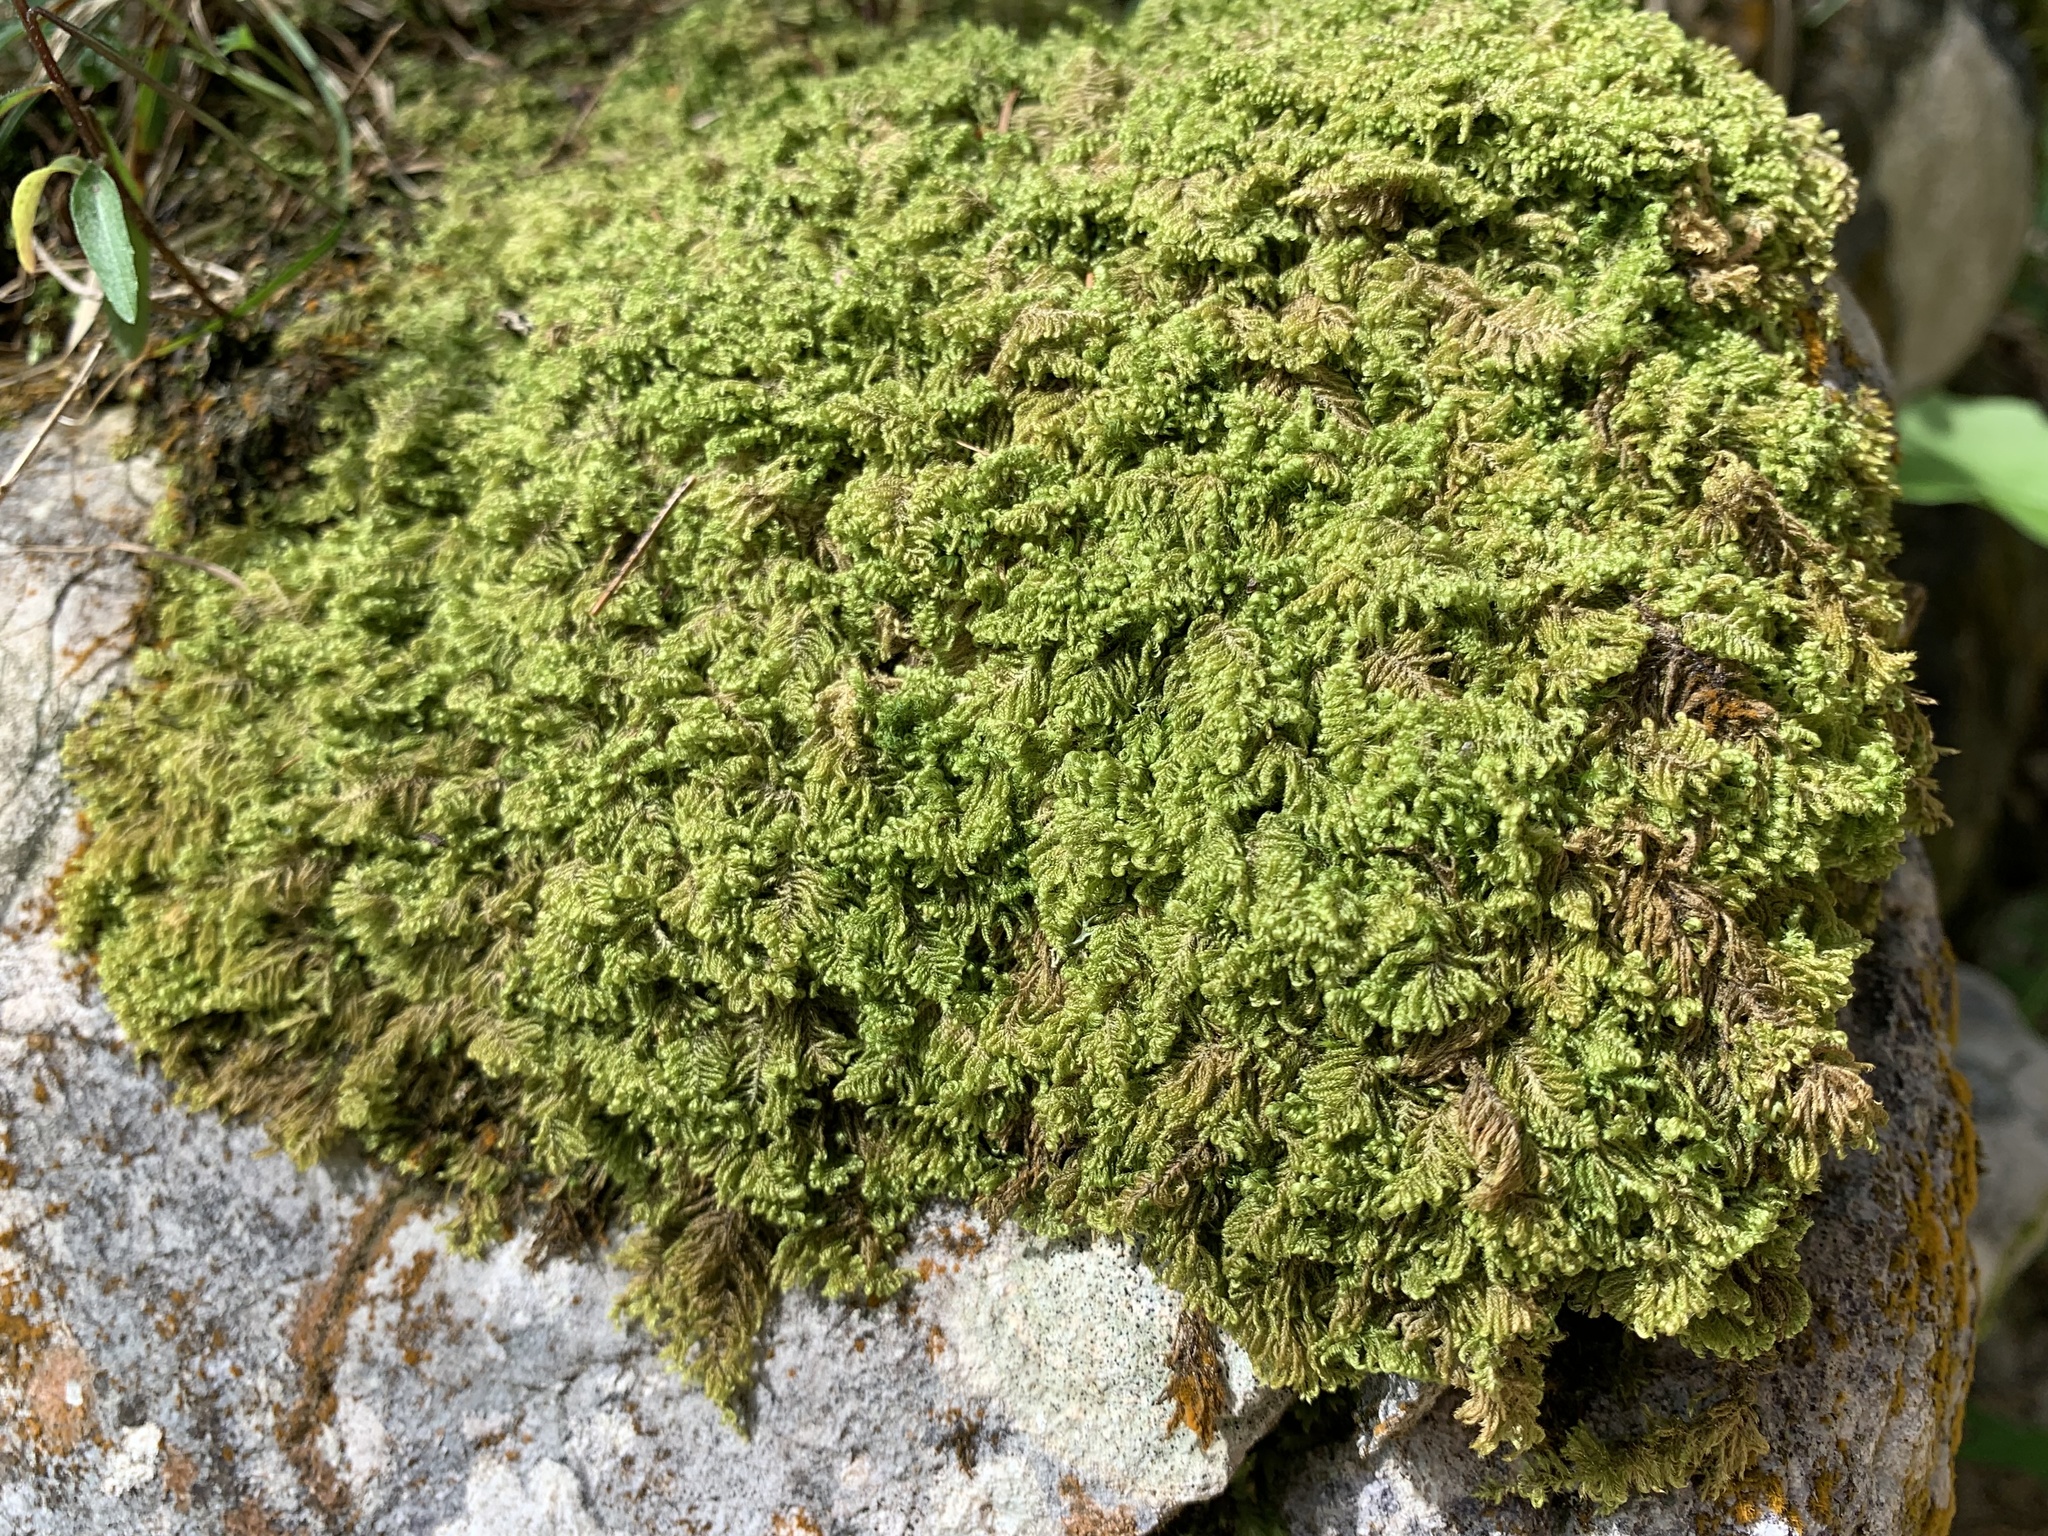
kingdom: Plantae
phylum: Bryophyta
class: Bryopsida
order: Hypnales
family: Myuriaceae
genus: Ctenidium
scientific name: Ctenidium molluscum
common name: Chalk comb-moss
